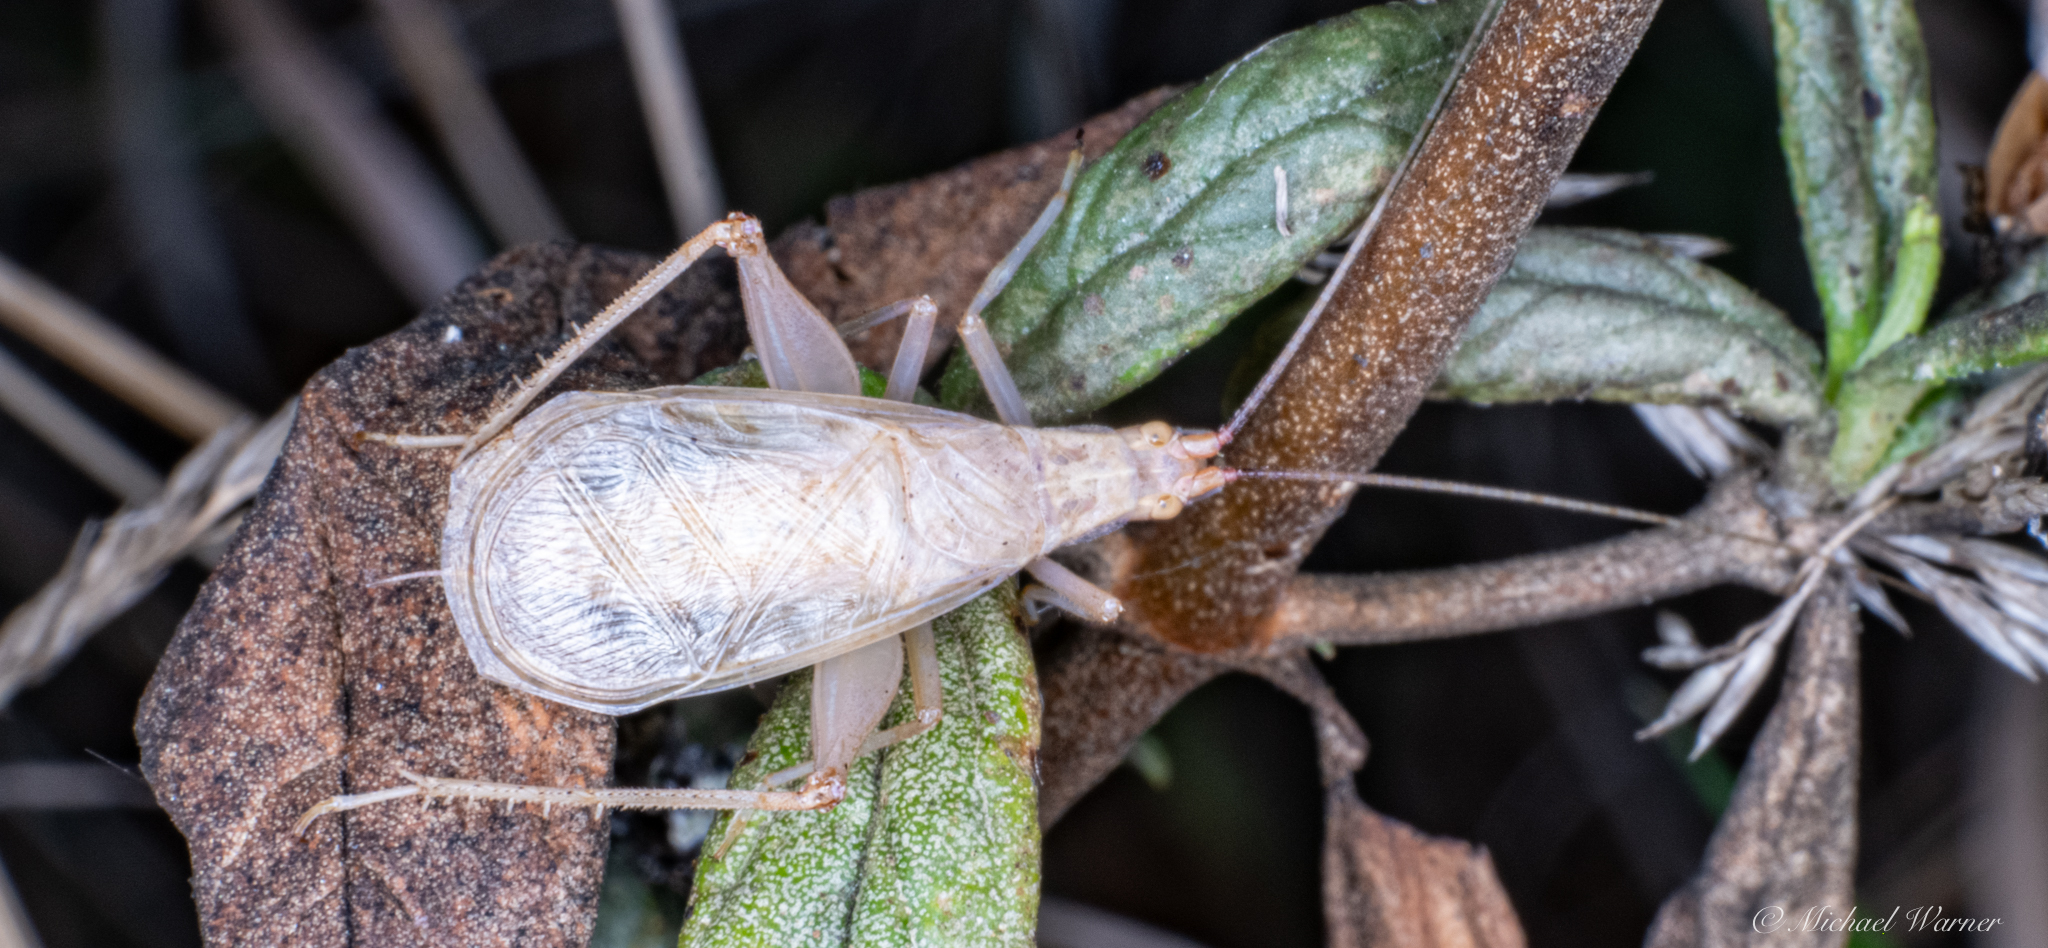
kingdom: Animalia
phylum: Arthropoda
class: Insecta
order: Orthoptera
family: Gryllidae
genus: Oecanthus
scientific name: Oecanthus californicus
